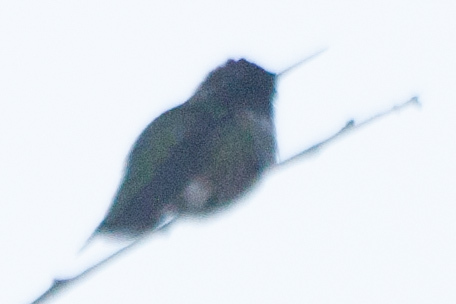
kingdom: Animalia
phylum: Chordata
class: Aves
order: Apodiformes
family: Trochilidae
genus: Calypte
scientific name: Calypte anna
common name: Anna's hummingbird
